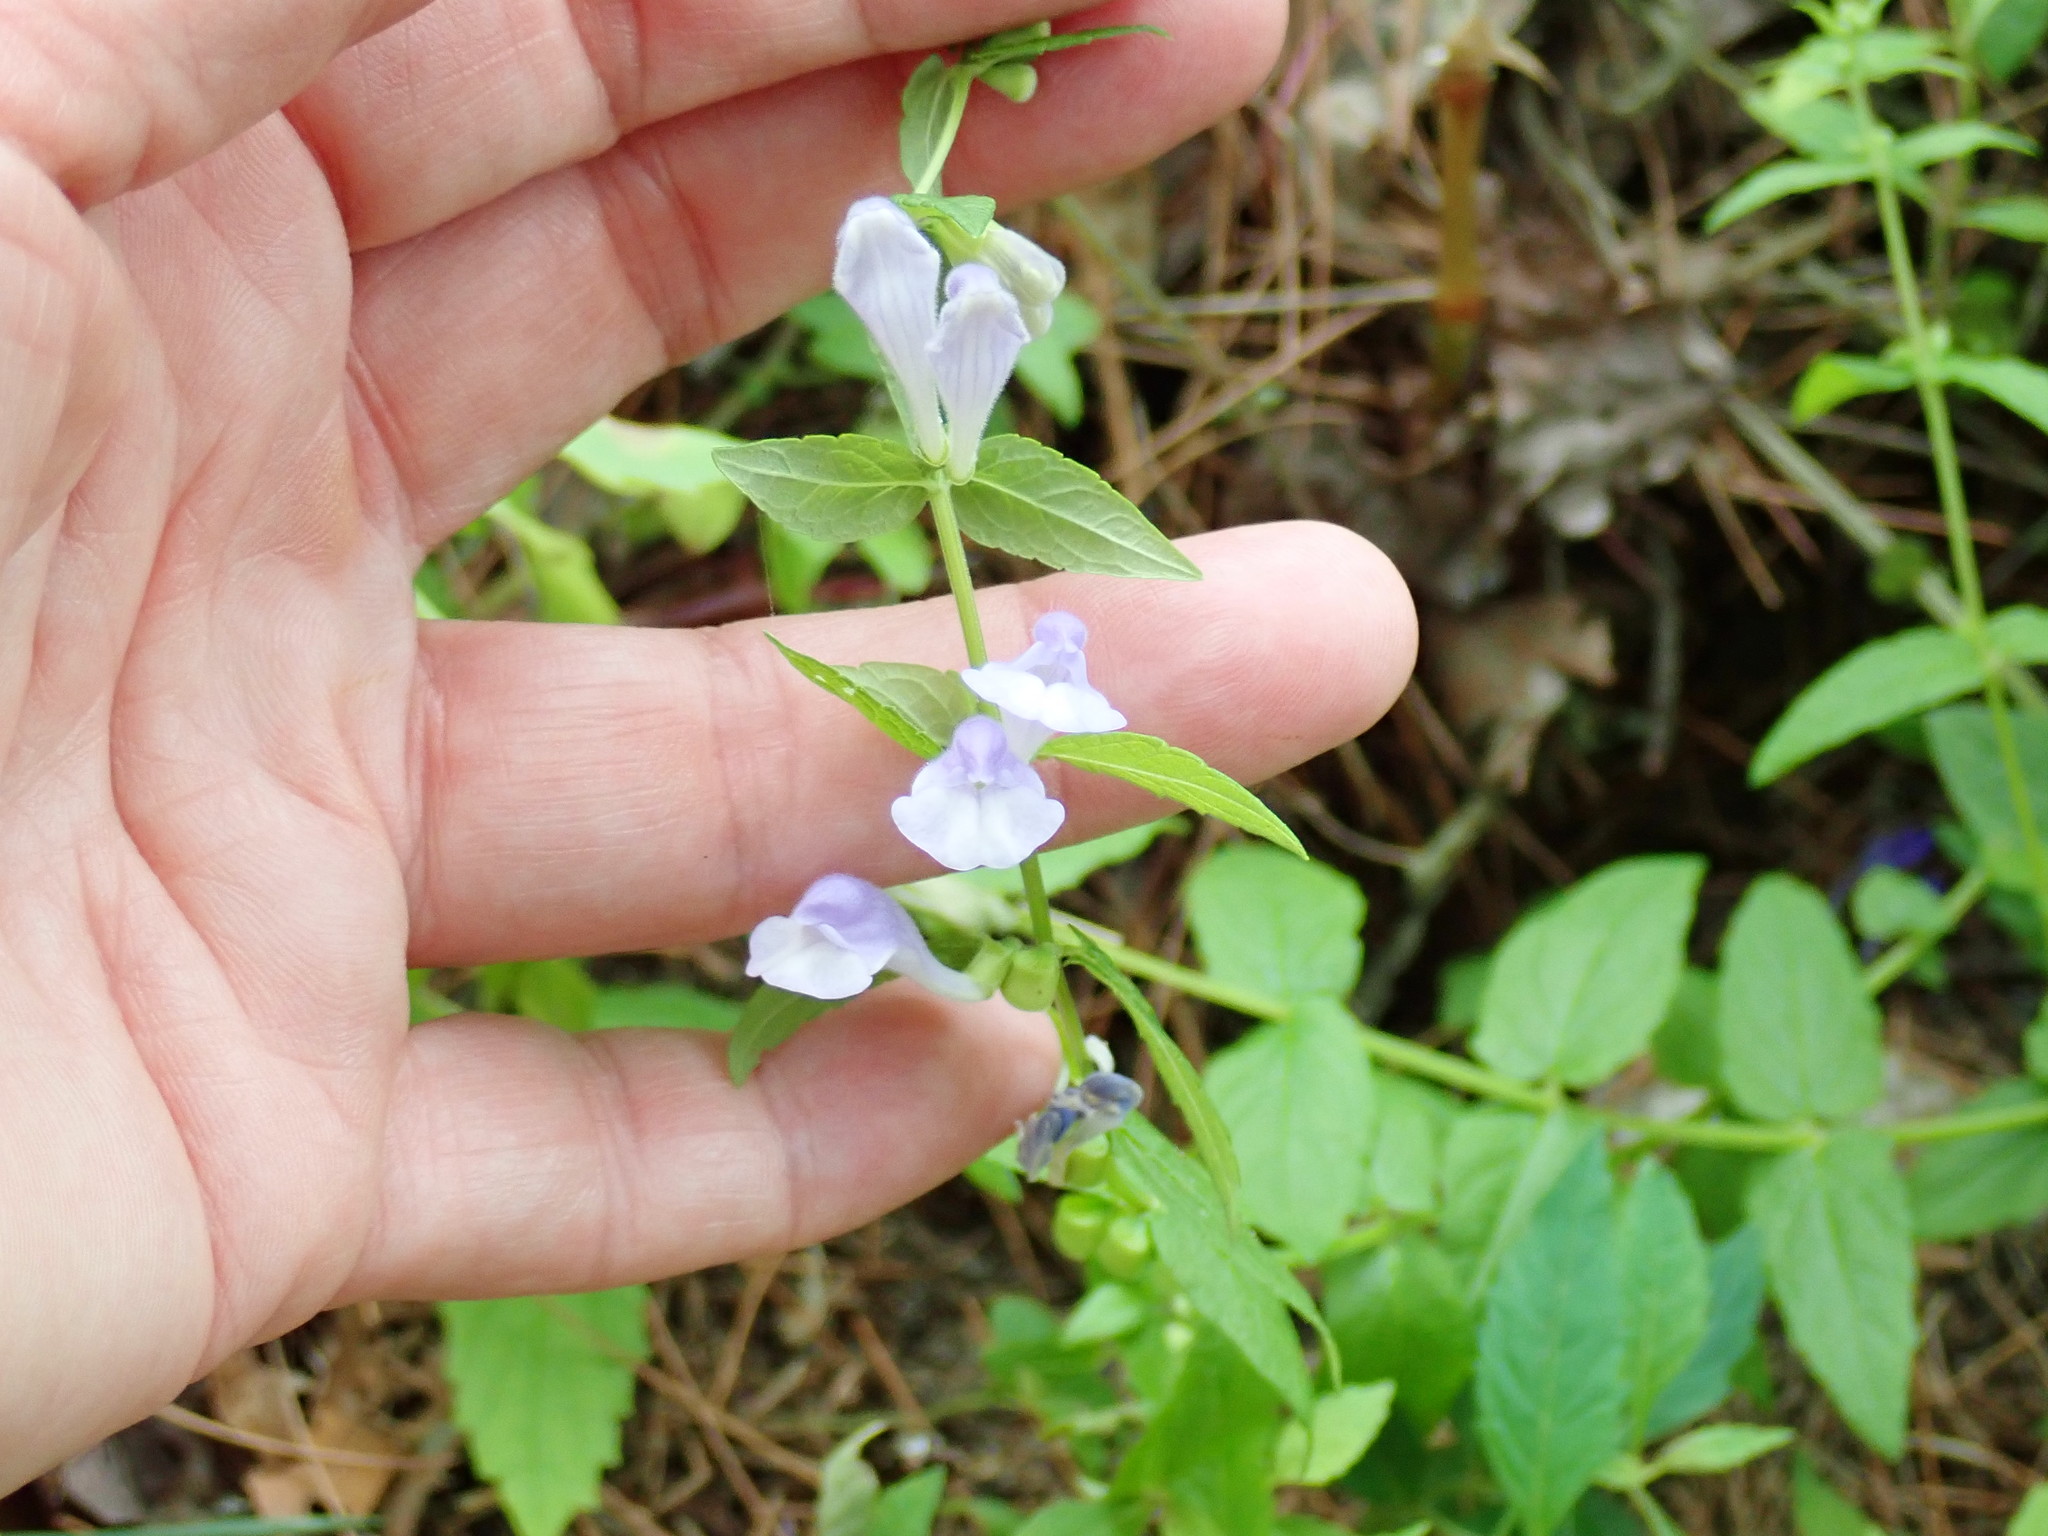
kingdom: Plantae
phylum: Tracheophyta
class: Magnoliopsida
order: Lamiales
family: Lamiaceae
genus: Scutellaria
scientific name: Scutellaria galericulata
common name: Skullcap
